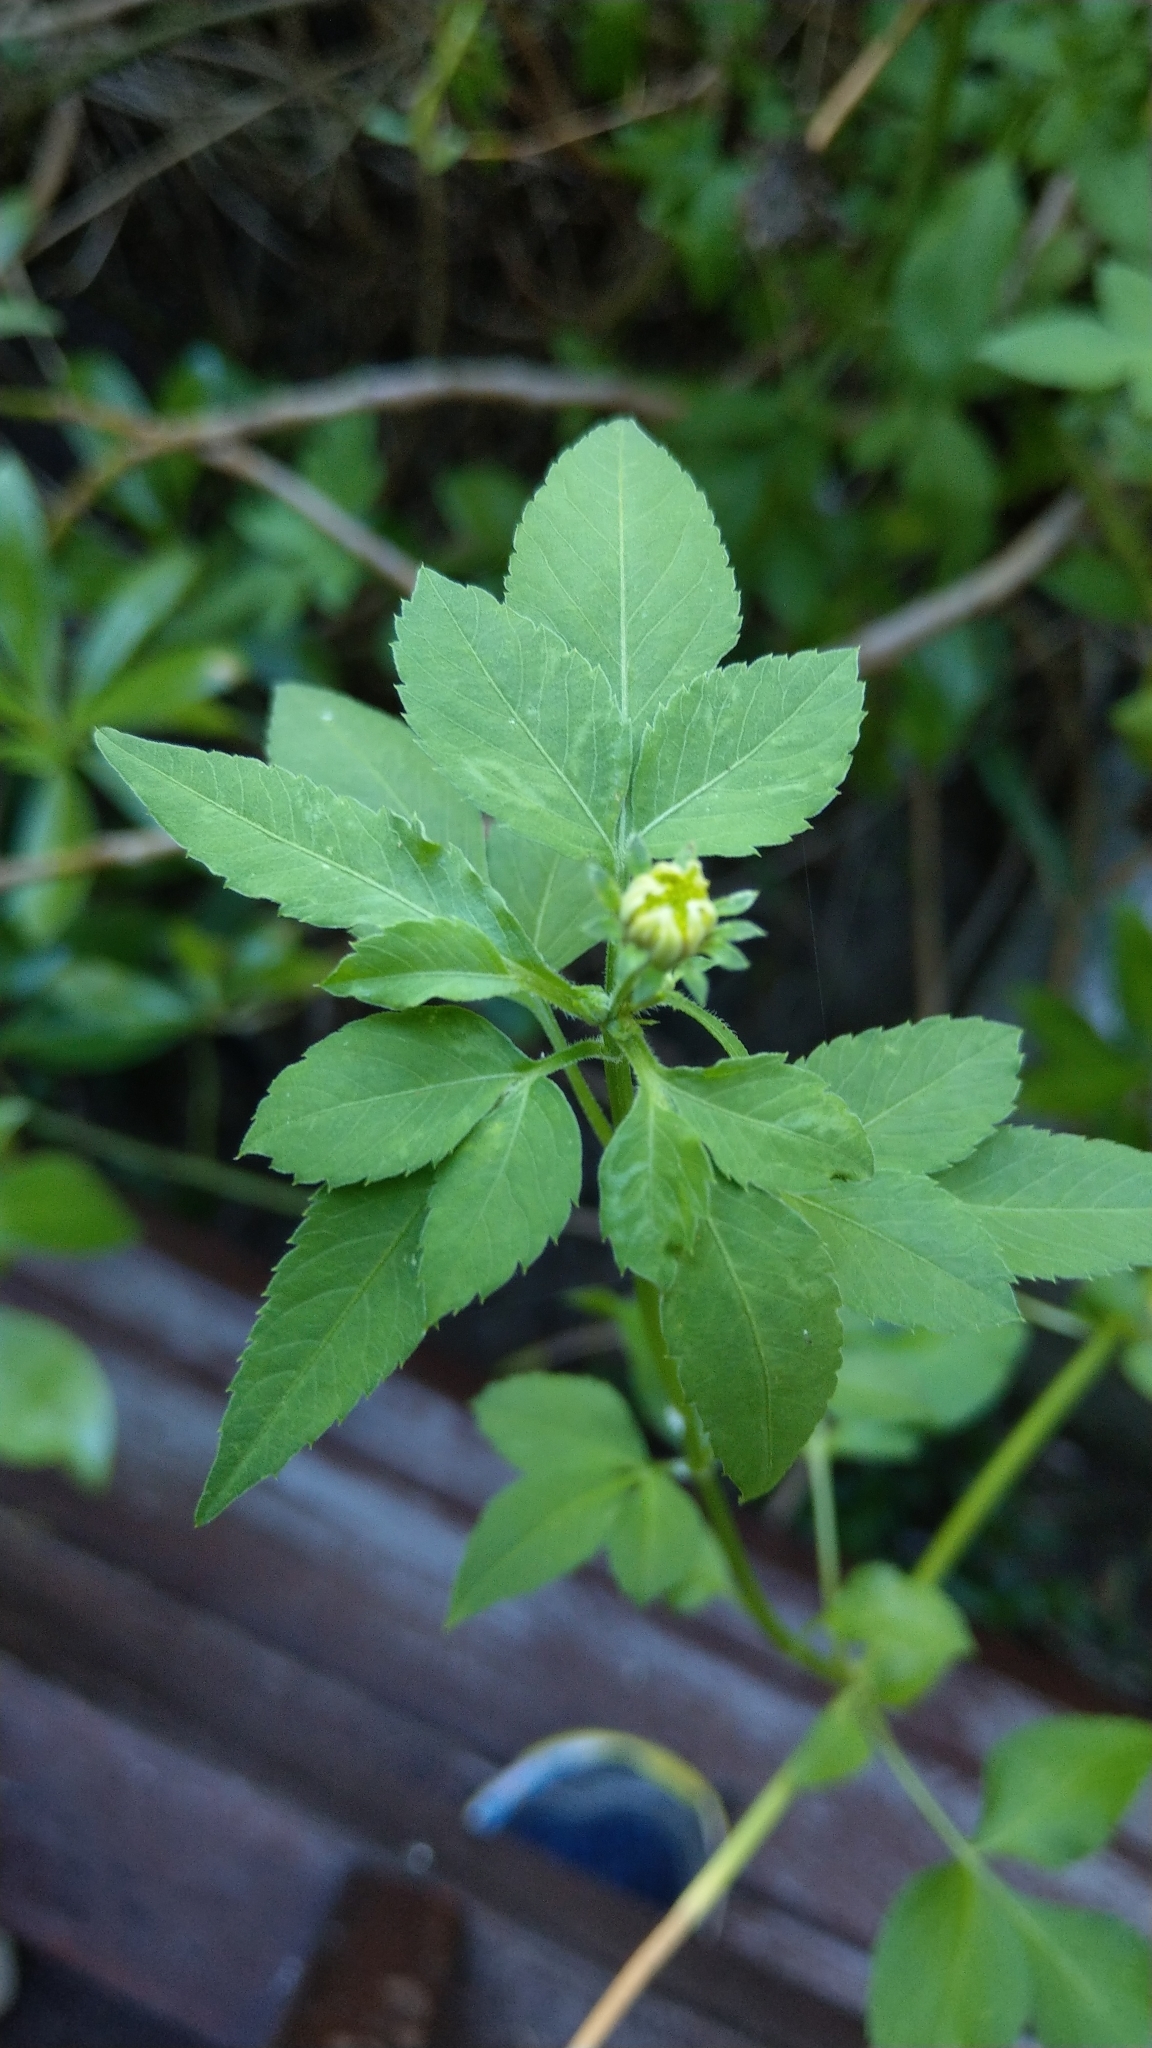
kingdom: Plantae
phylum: Tracheophyta
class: Magnoliopsida
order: Asterales
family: Asteraceae
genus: Bidens
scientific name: Bidens alba
